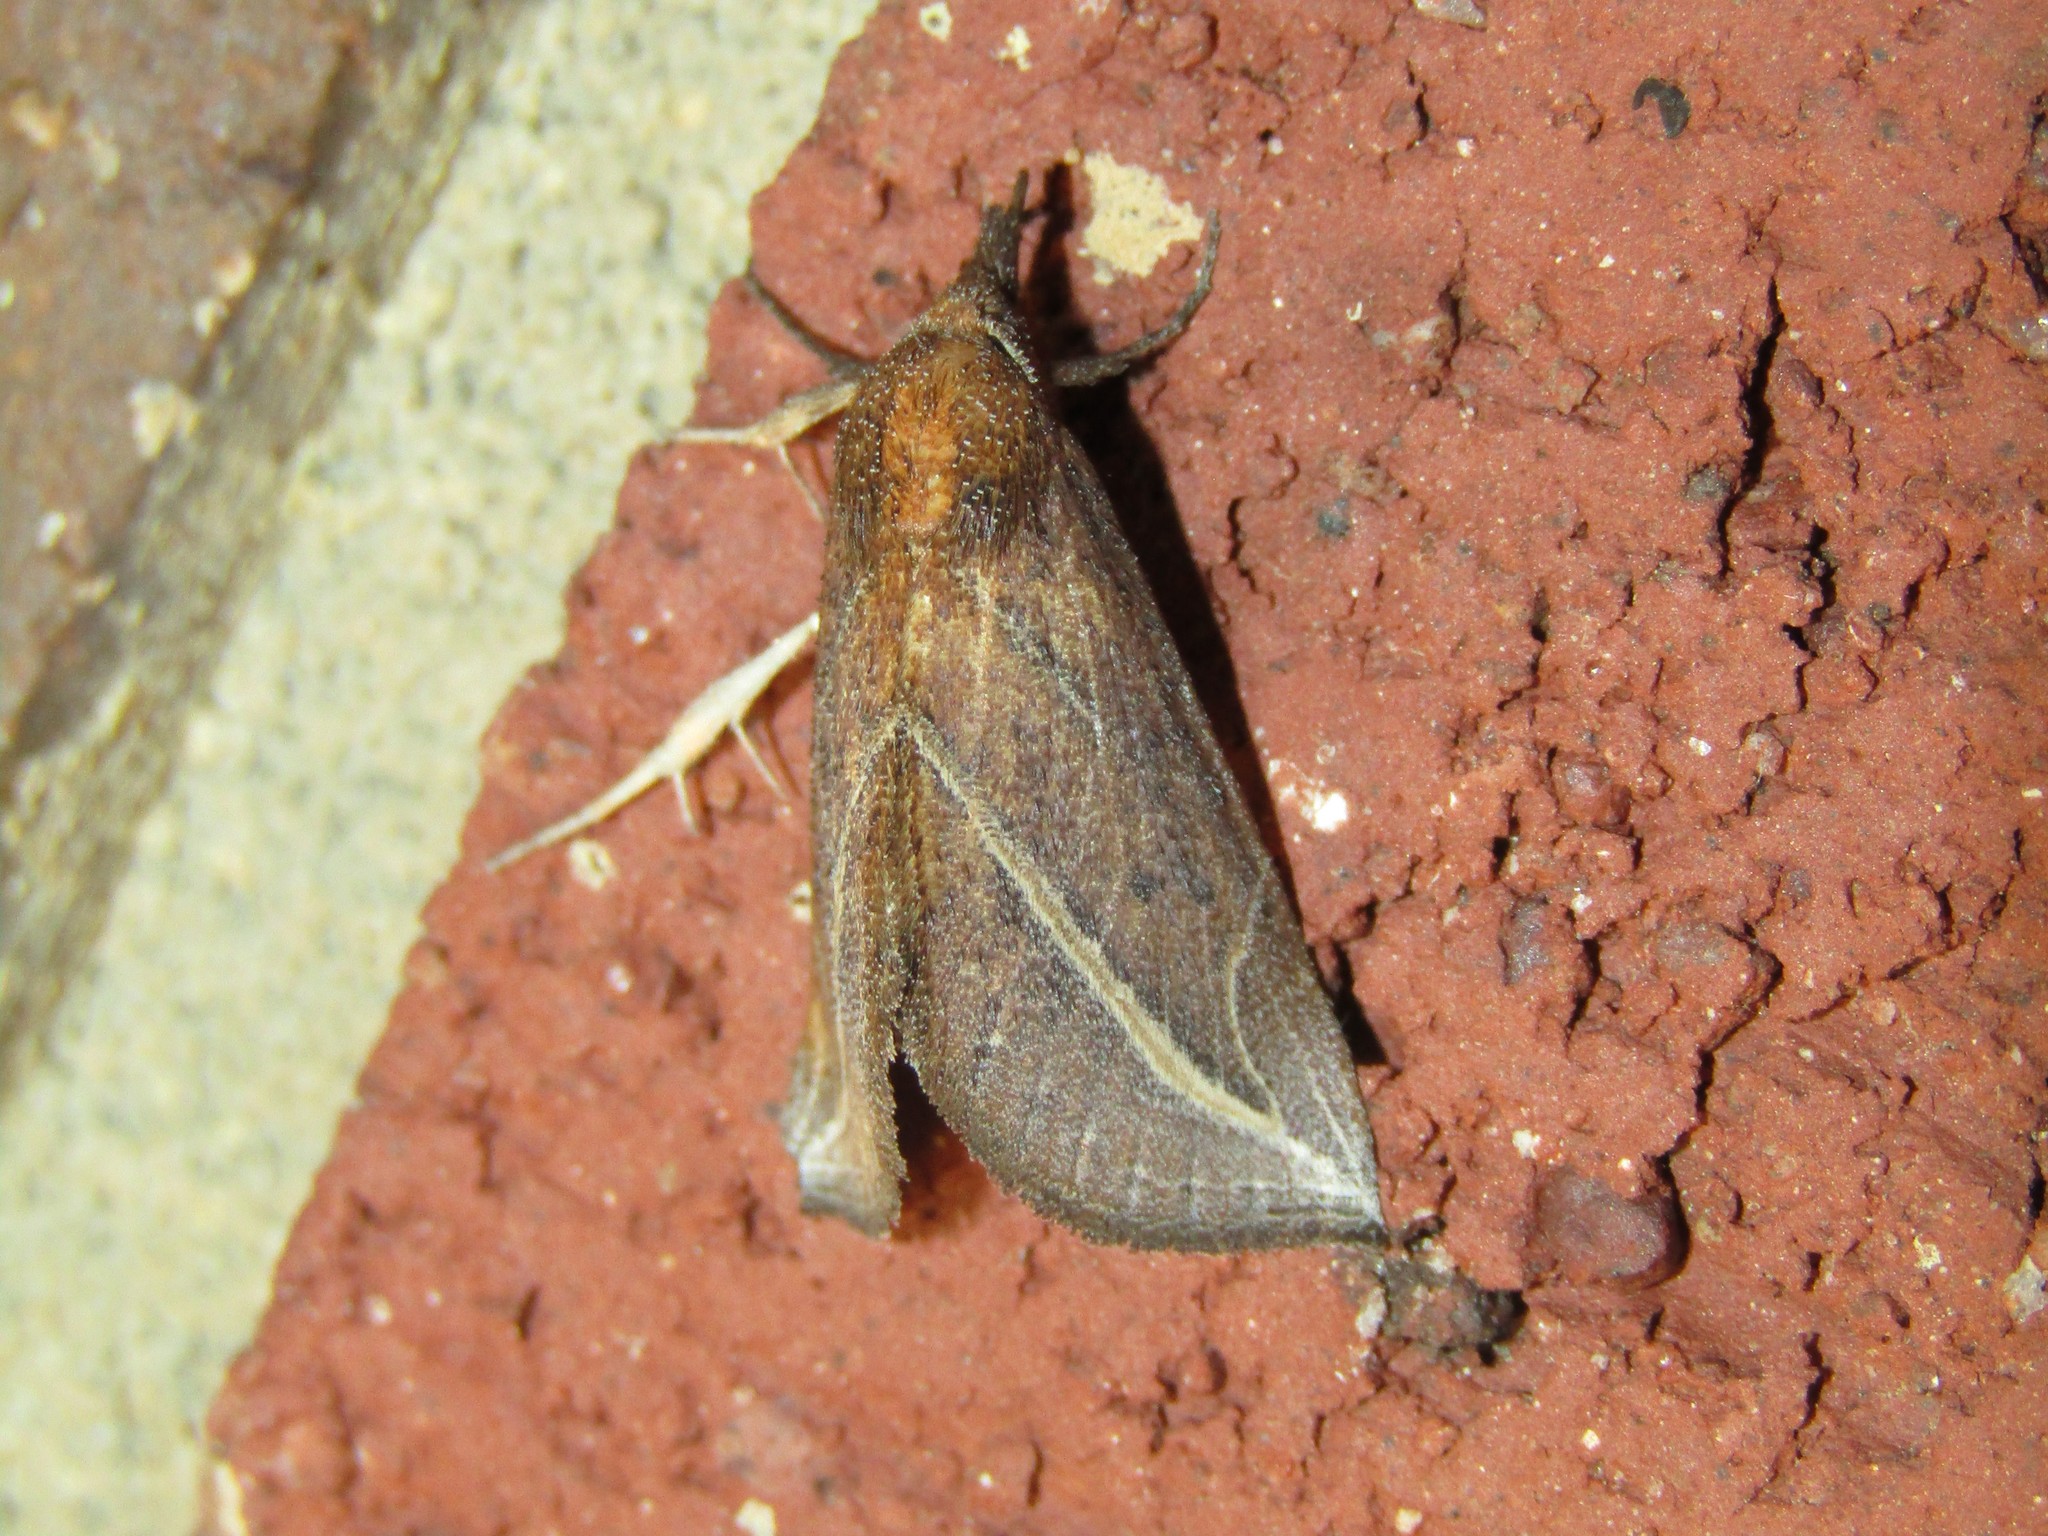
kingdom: Animalia
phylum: Arthropoda
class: Insecta
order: Lepidoptera
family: Erebidae
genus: Phyprosopus
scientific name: Phyprosopus callitrichoides
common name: Curved-lined owlet
